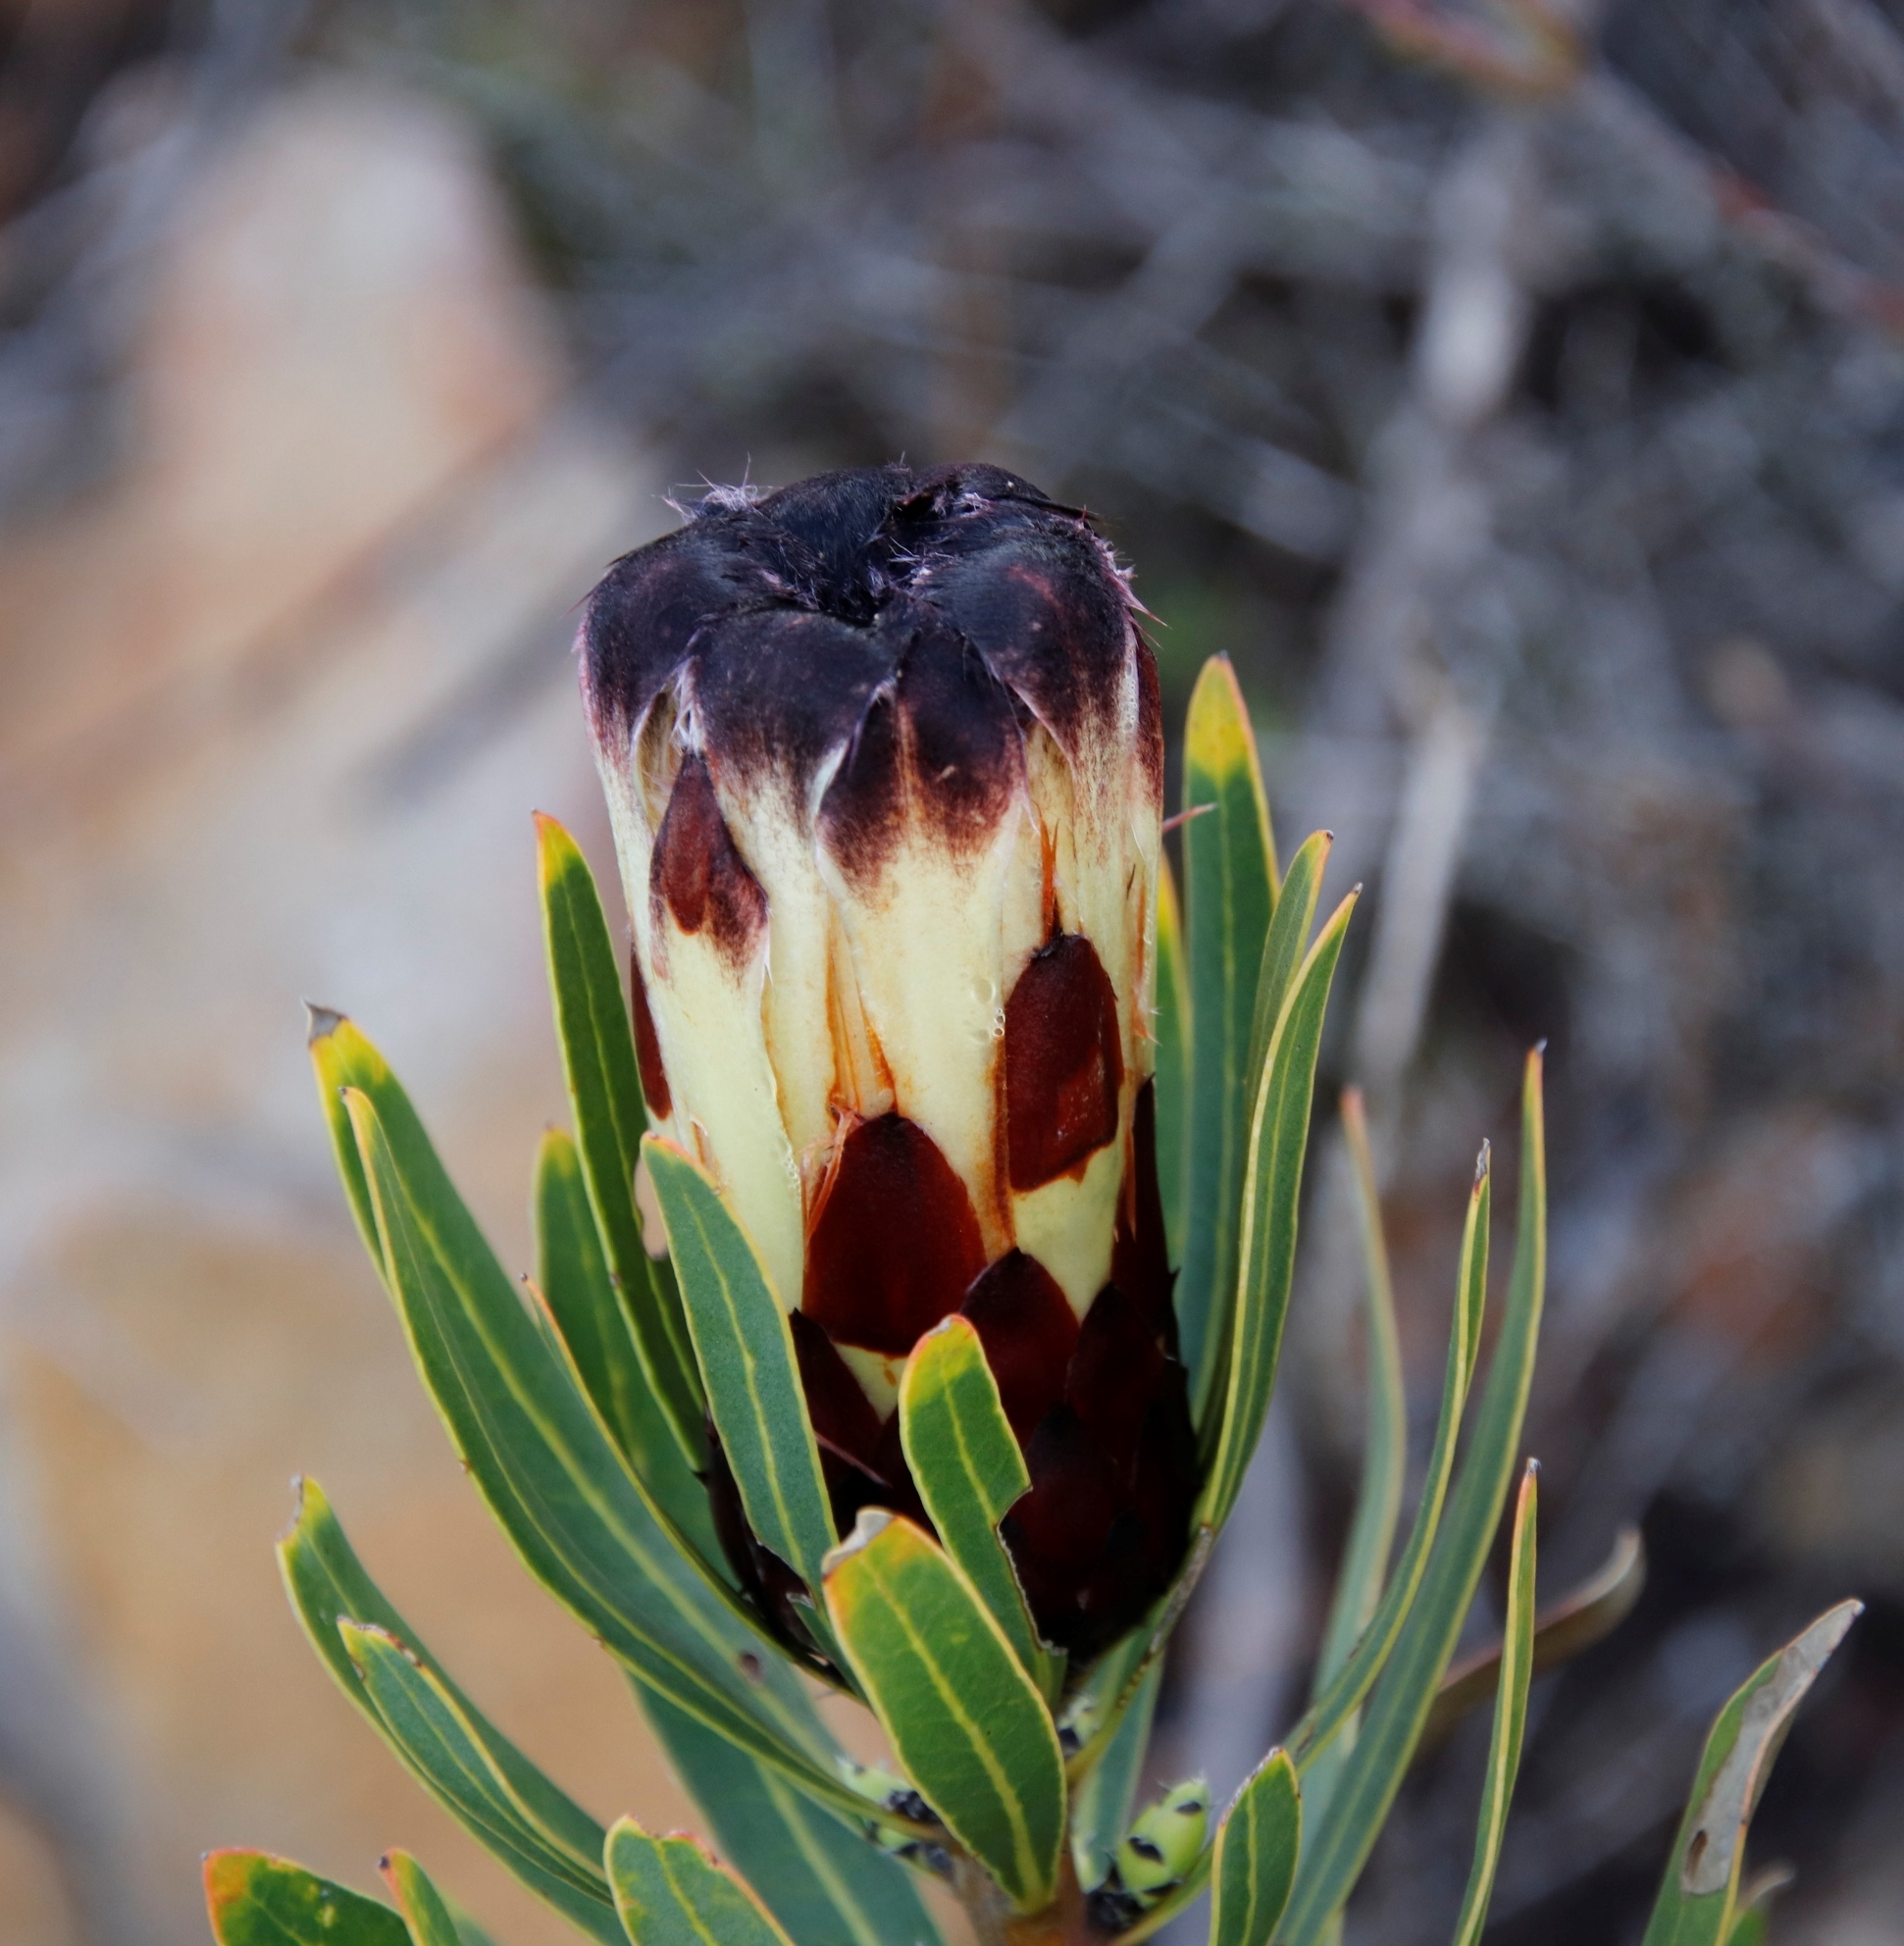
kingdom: Plantae
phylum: Tracheophyta
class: Magnoliopsida
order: Proteales
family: Proteaceae
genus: Protea
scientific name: Protea lepidocarpodendron
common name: Black-bearded protea
